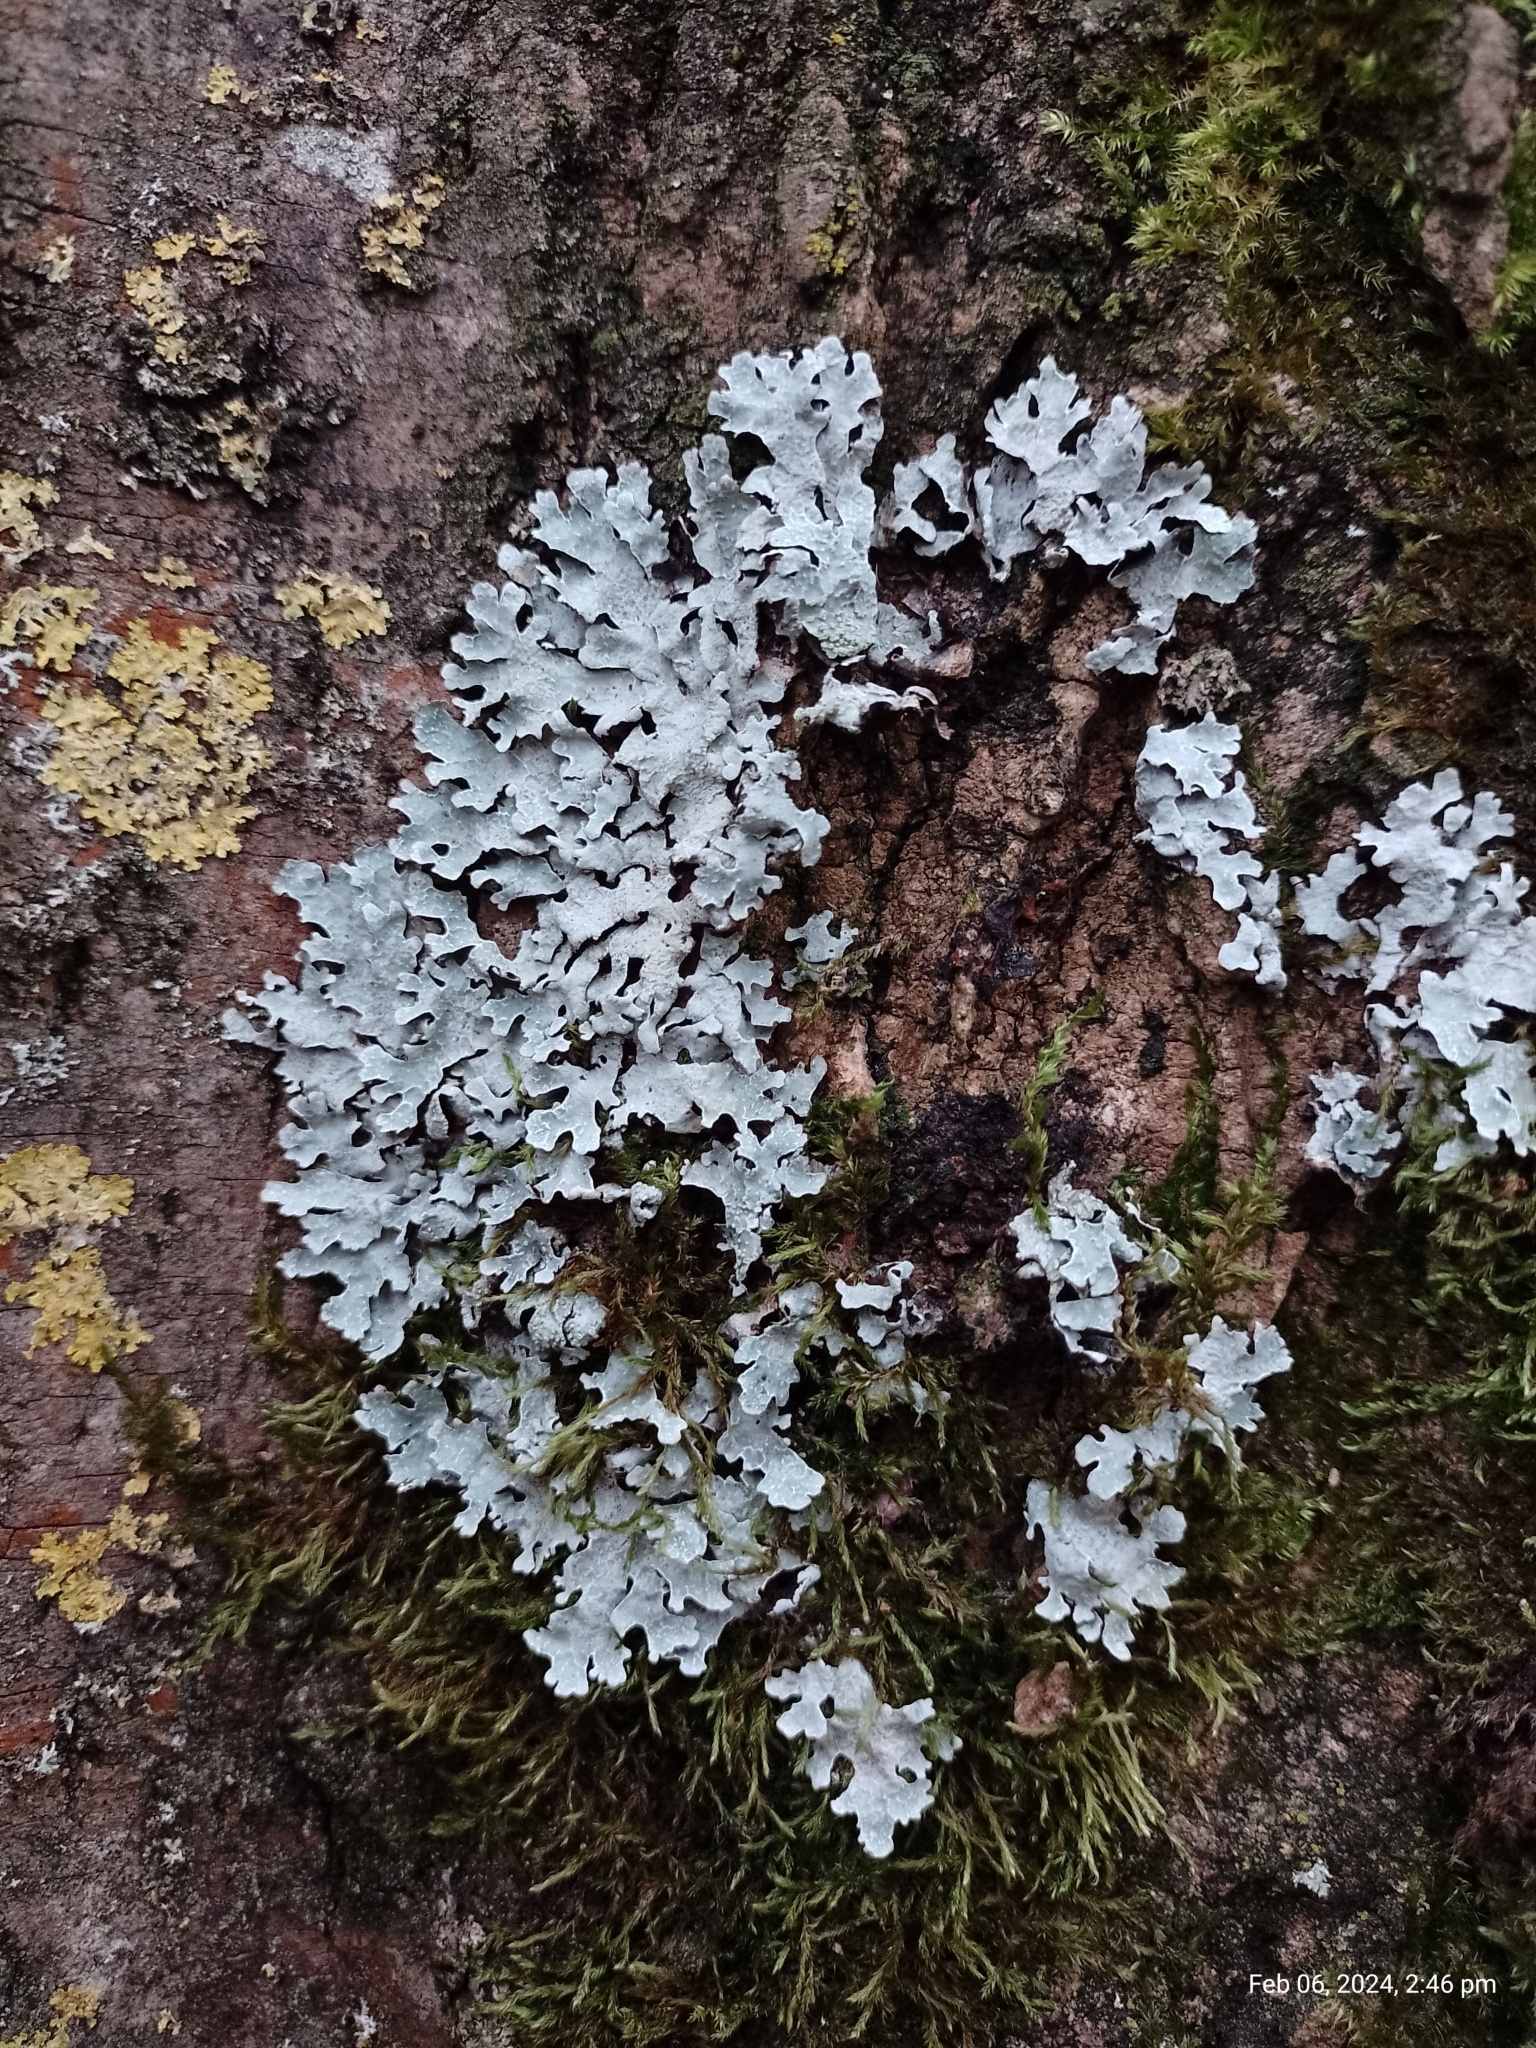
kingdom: Fungi
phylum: Ascomycota
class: Lecanoromycetes
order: Lecanorales
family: Parmeliaceae
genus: Parmelia
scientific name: Parmelia sulcata
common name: Netted shield lichen
